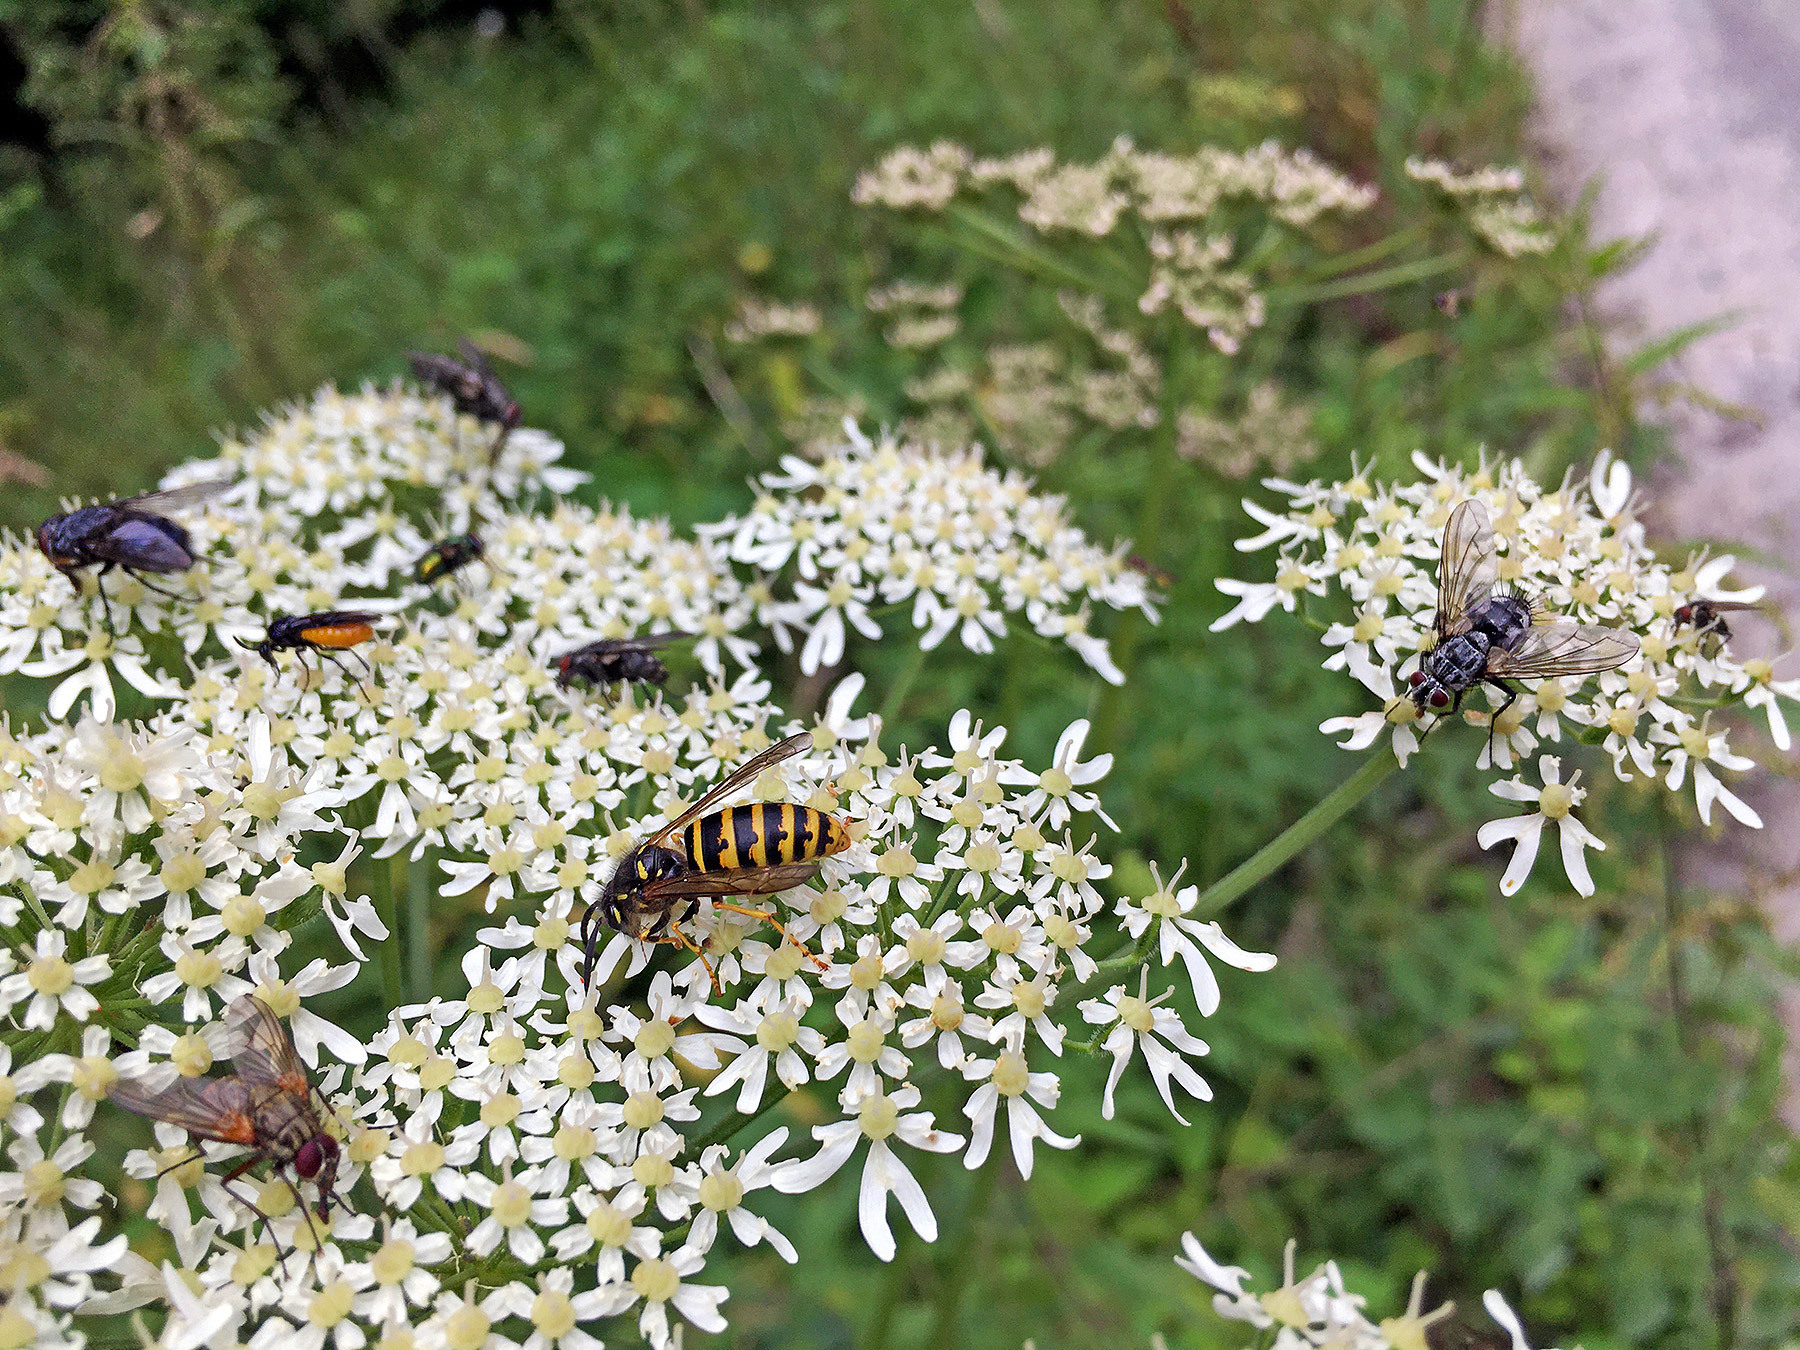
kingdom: Animalia
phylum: Arthropoda
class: Insecta
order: Hymenoptera
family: Argidae
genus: Arge
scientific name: Arge pagana
